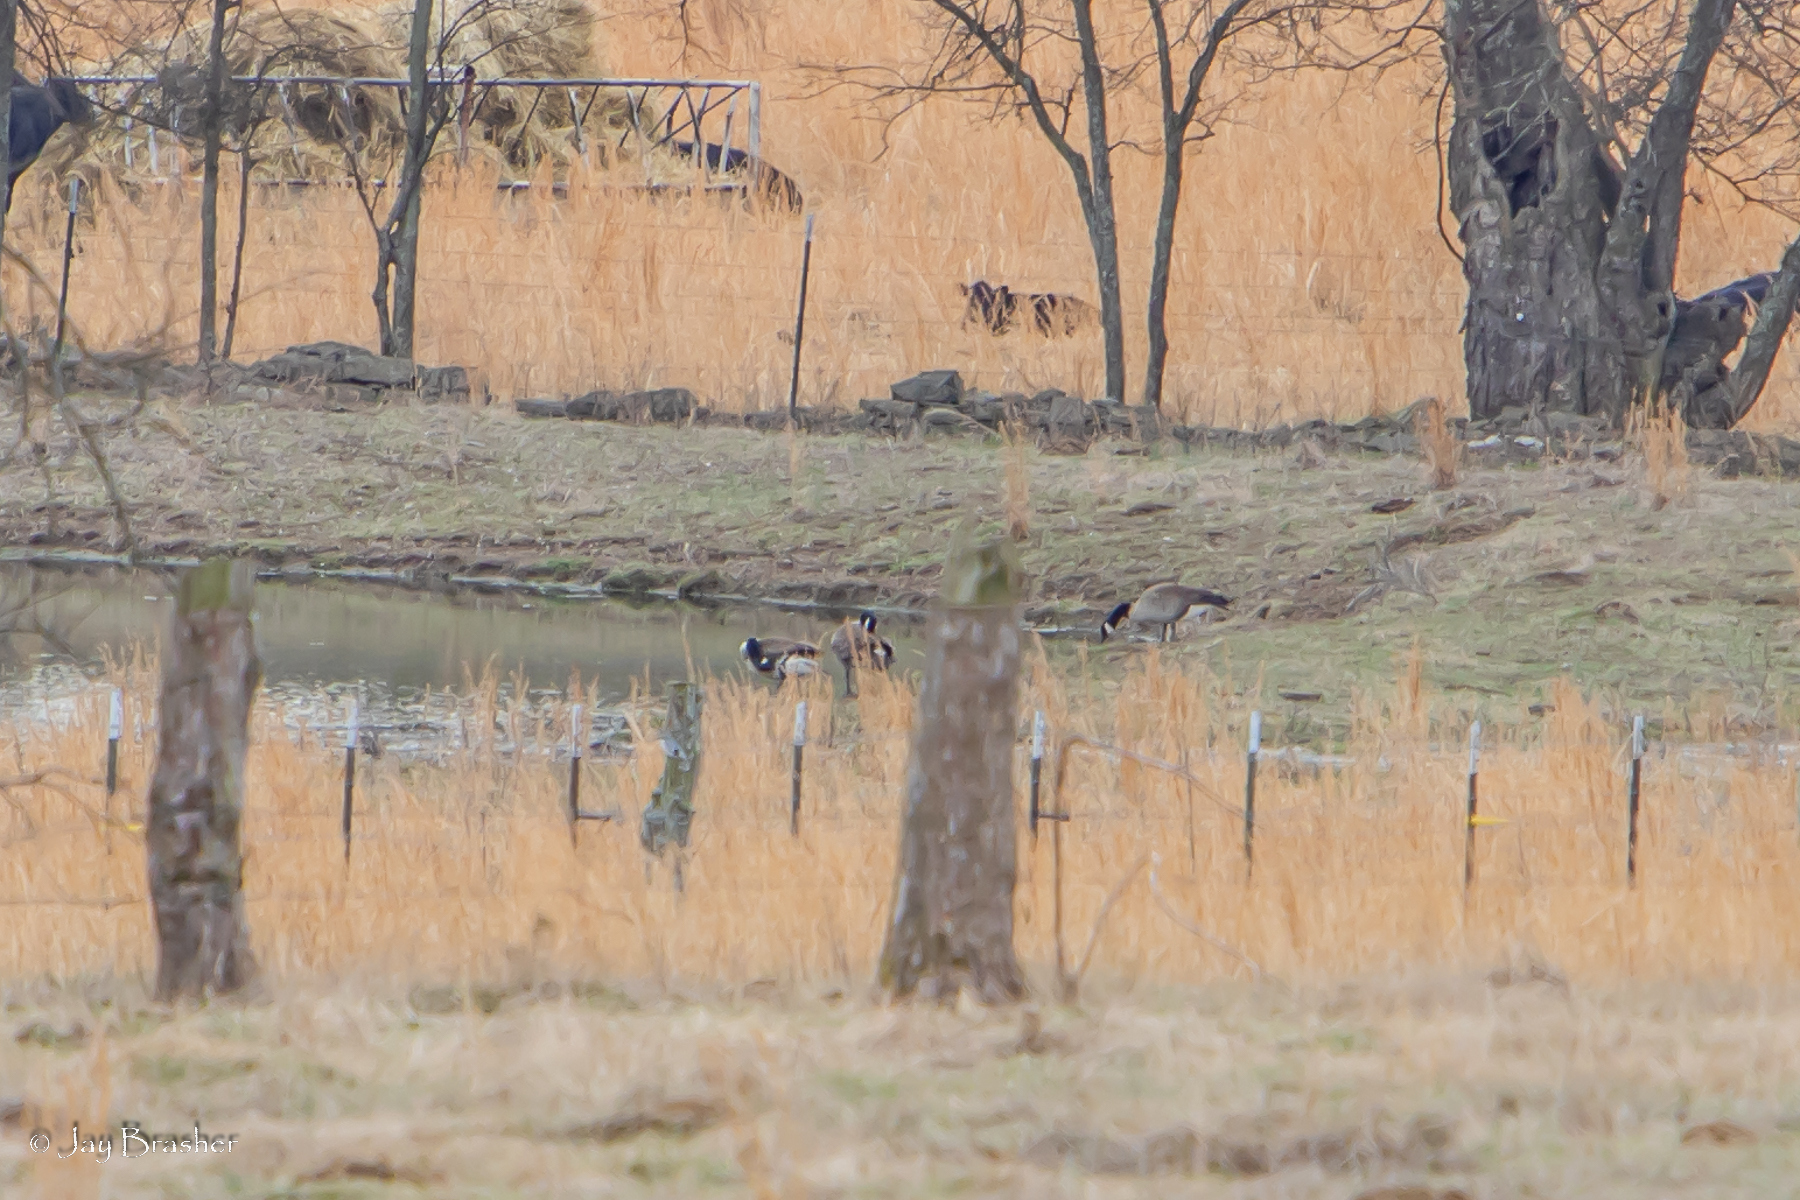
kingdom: Animalia
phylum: Chordata
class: Aves
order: Anseriformes
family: Anatidae
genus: Branta
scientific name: Branta canadensis
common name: Canada goose
